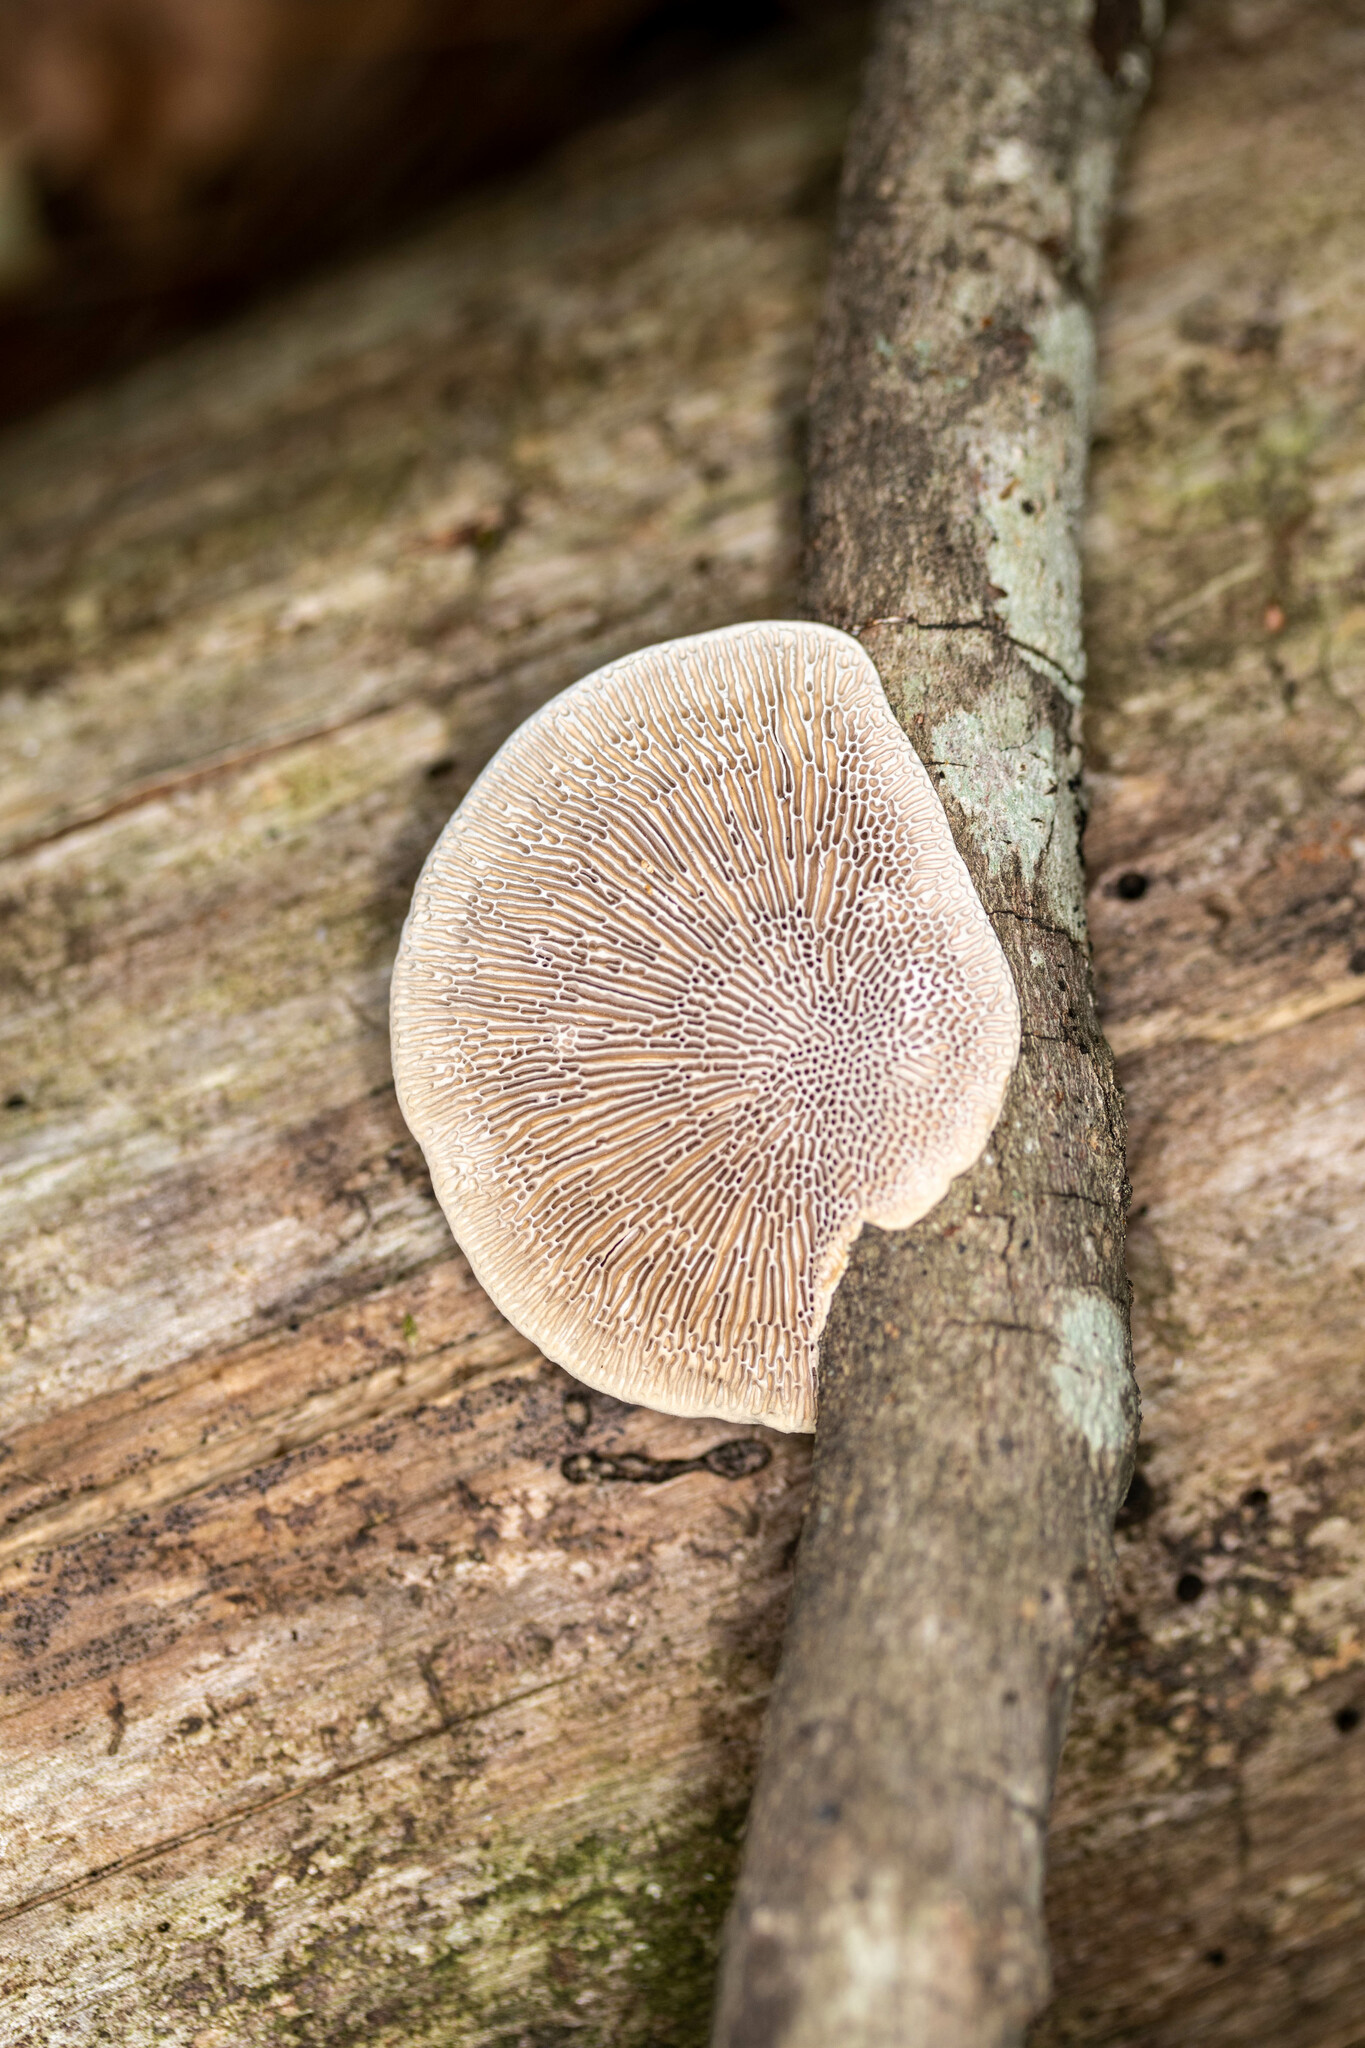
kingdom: Fungi
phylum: Basidiomycota
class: Agaricomycetes
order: Polyporales
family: Polyporaceae
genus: Daedaleopsis
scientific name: Daedaleopsis confragosa
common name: Blushing bracket
